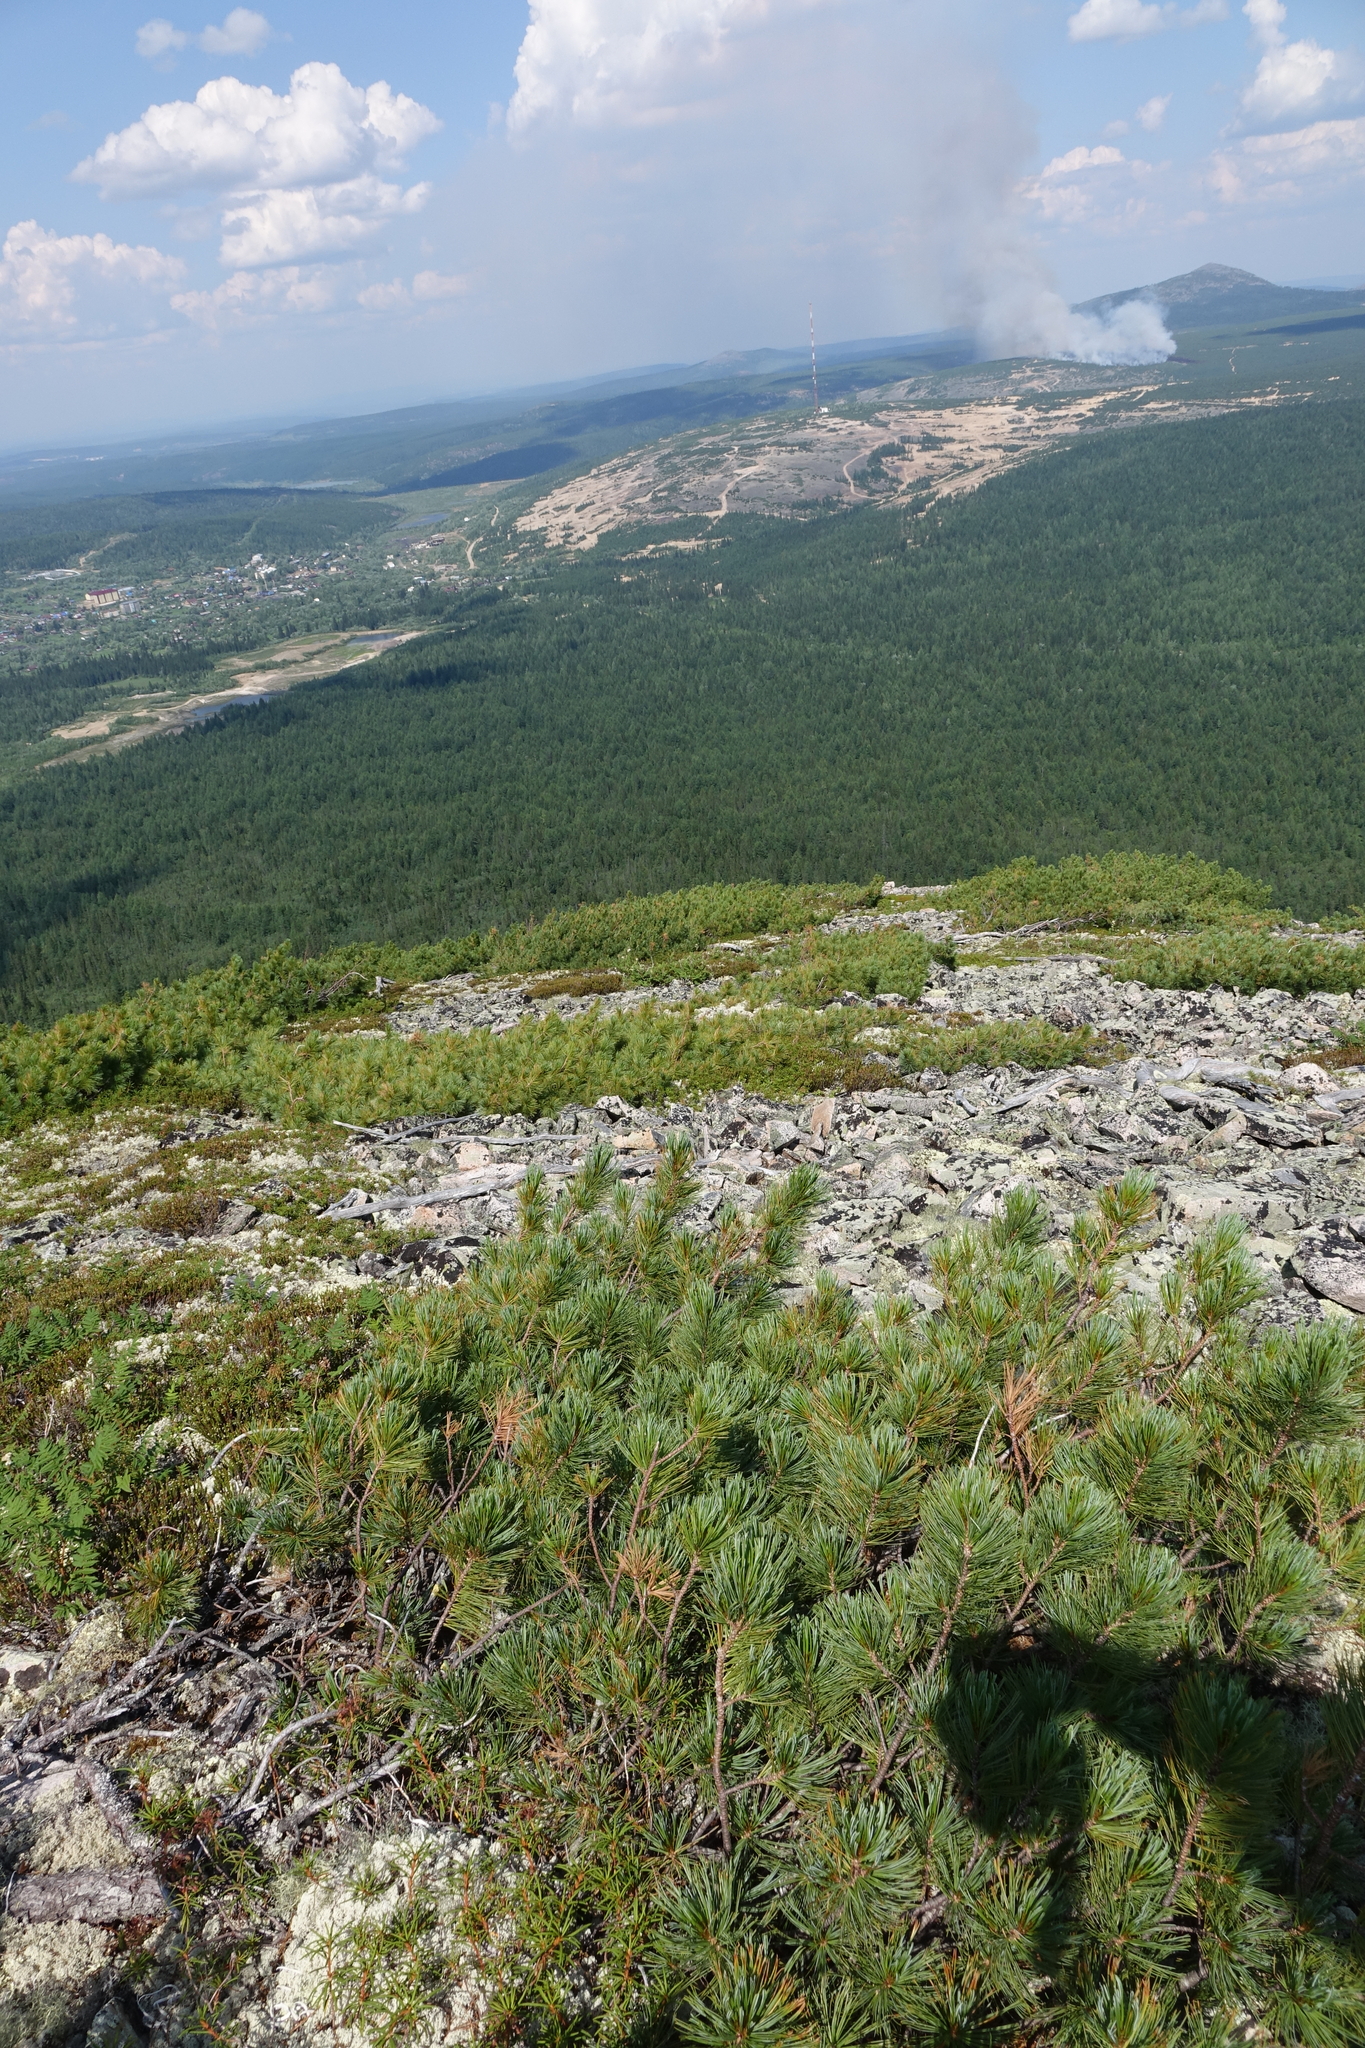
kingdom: Plantae
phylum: Tracheophyta
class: Pinopsida
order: Pinales
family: Pinaceae
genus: Pinus
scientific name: Pinus pumila
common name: Dwarf siberian pine
